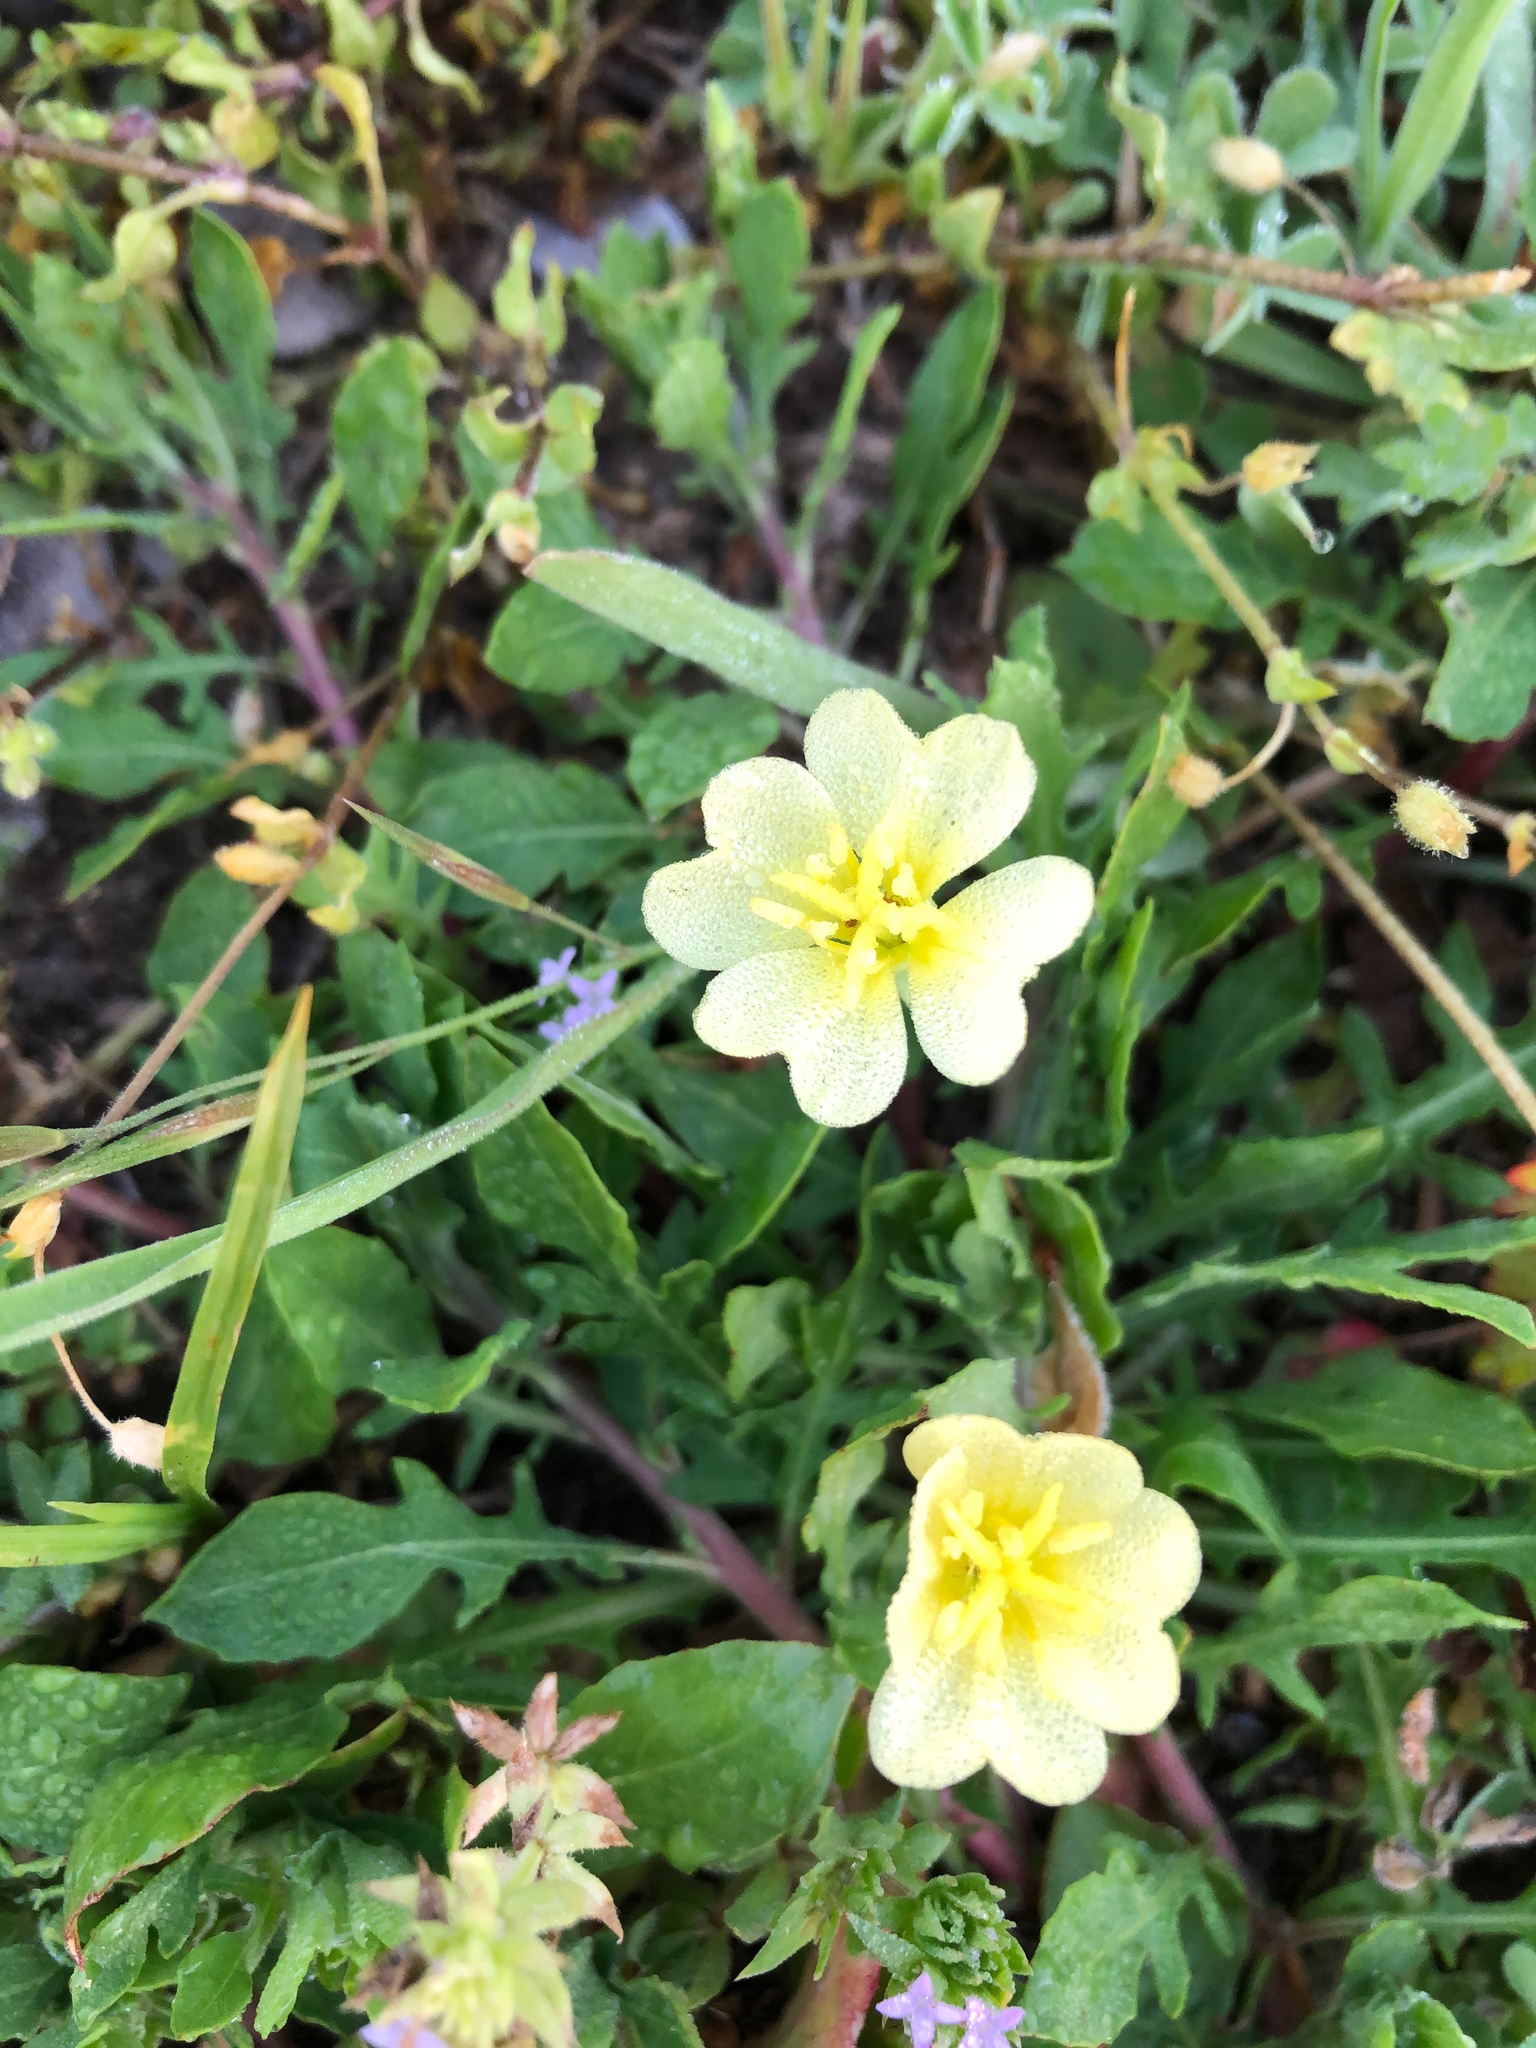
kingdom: Plantae
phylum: Tracheophyta
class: Magnoliopsida
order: Myrtales
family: Onagraceae
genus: Oenothera
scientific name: Oenothera laciniata
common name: Cut-leaved evening-primrose
